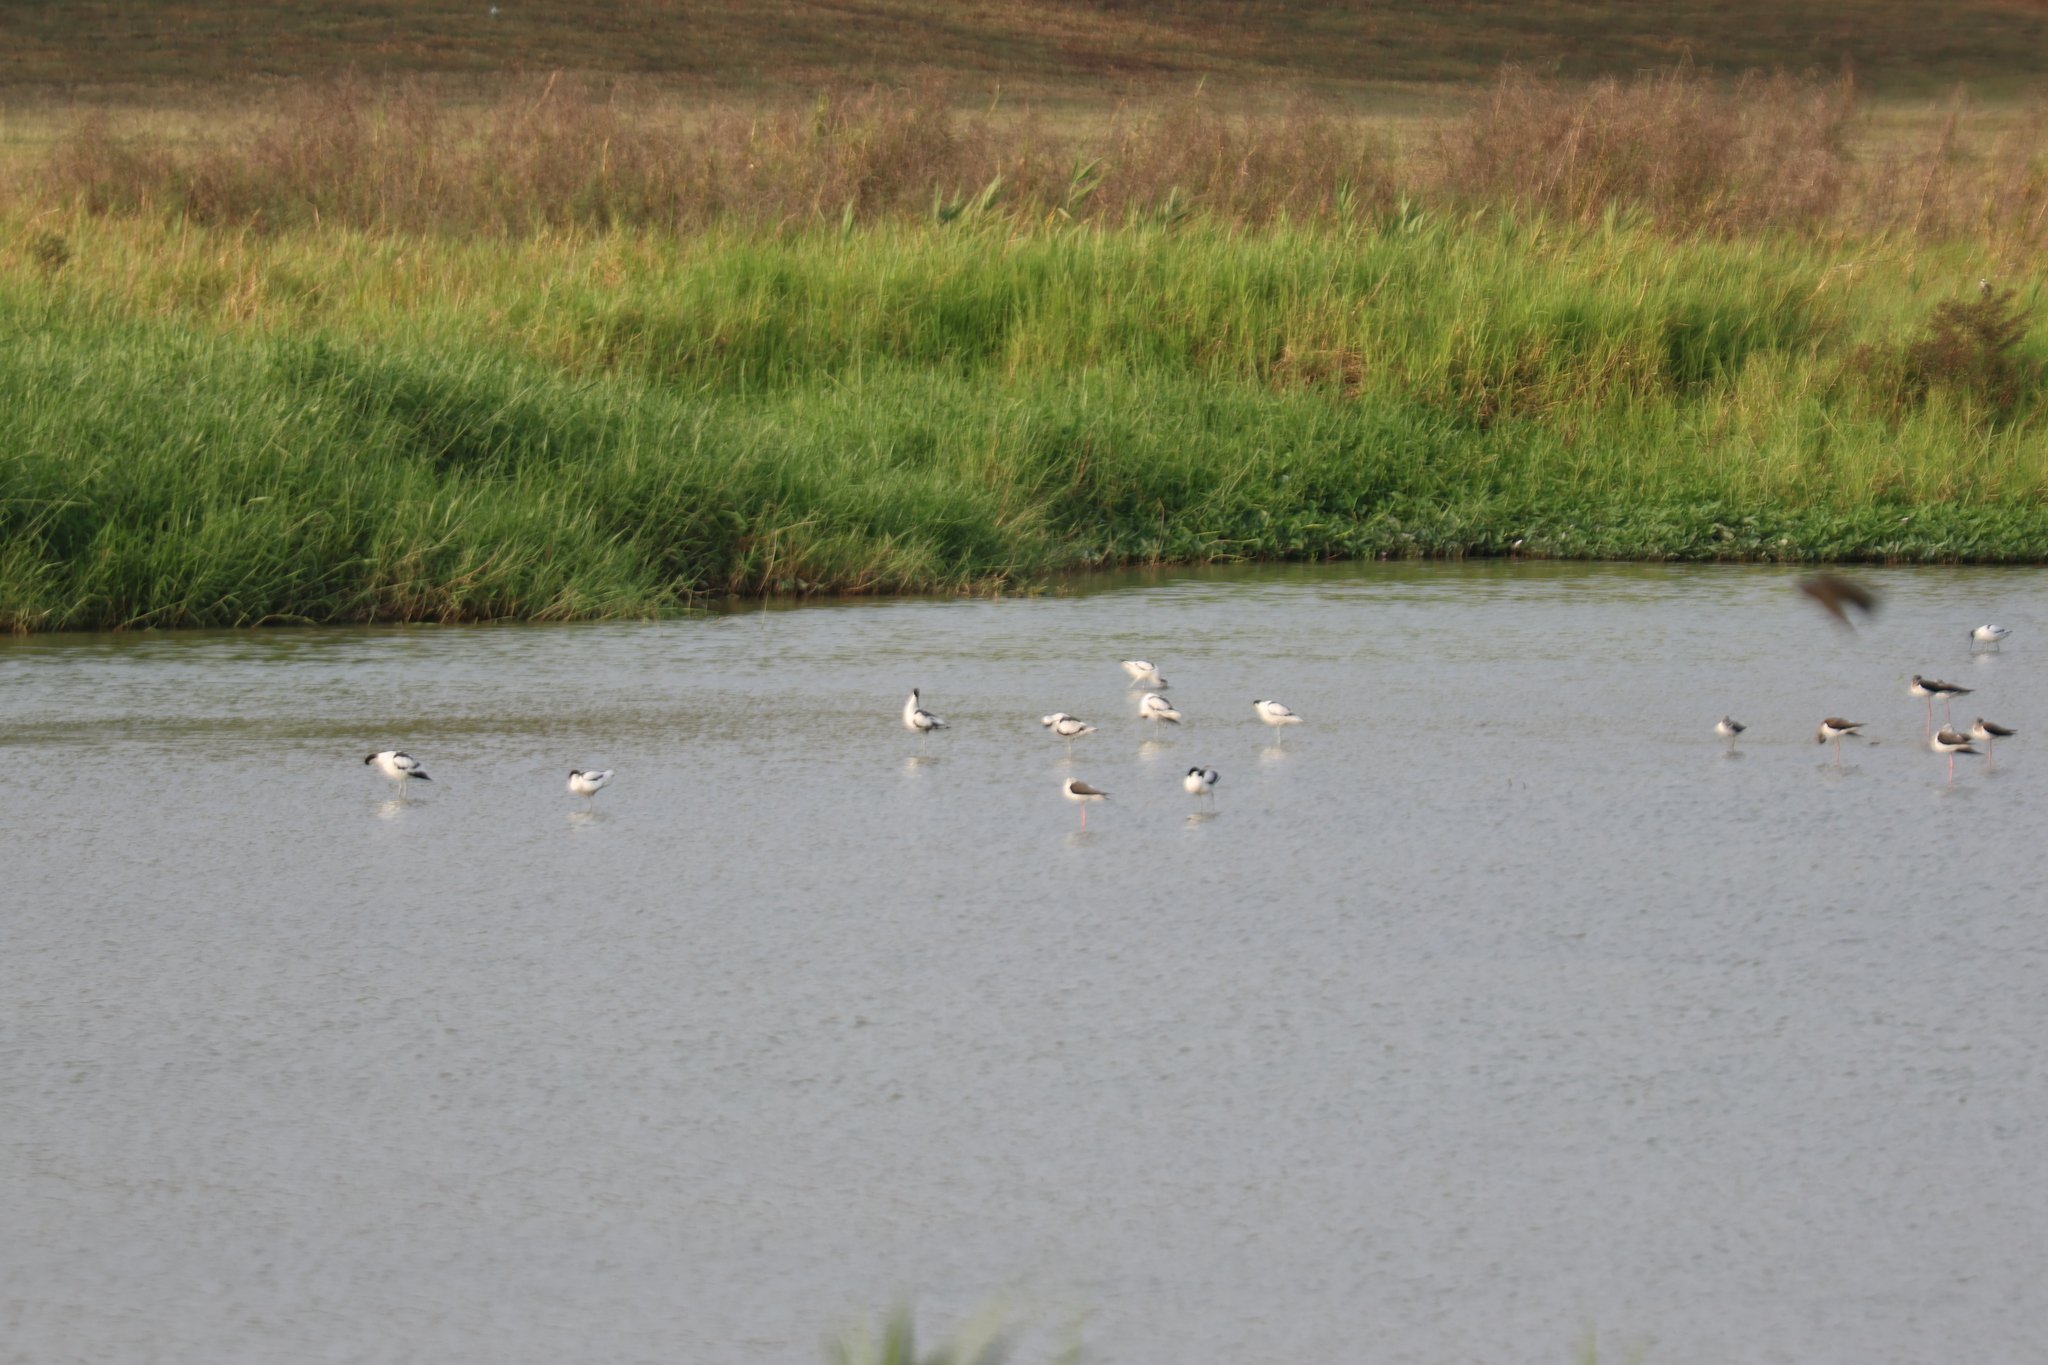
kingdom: Animalia
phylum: Chordata
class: Aves
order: Charadriiformes
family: Recurvirostridae
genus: Recurvirostra
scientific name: Recurvirostra avosetta
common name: Pied avocet
